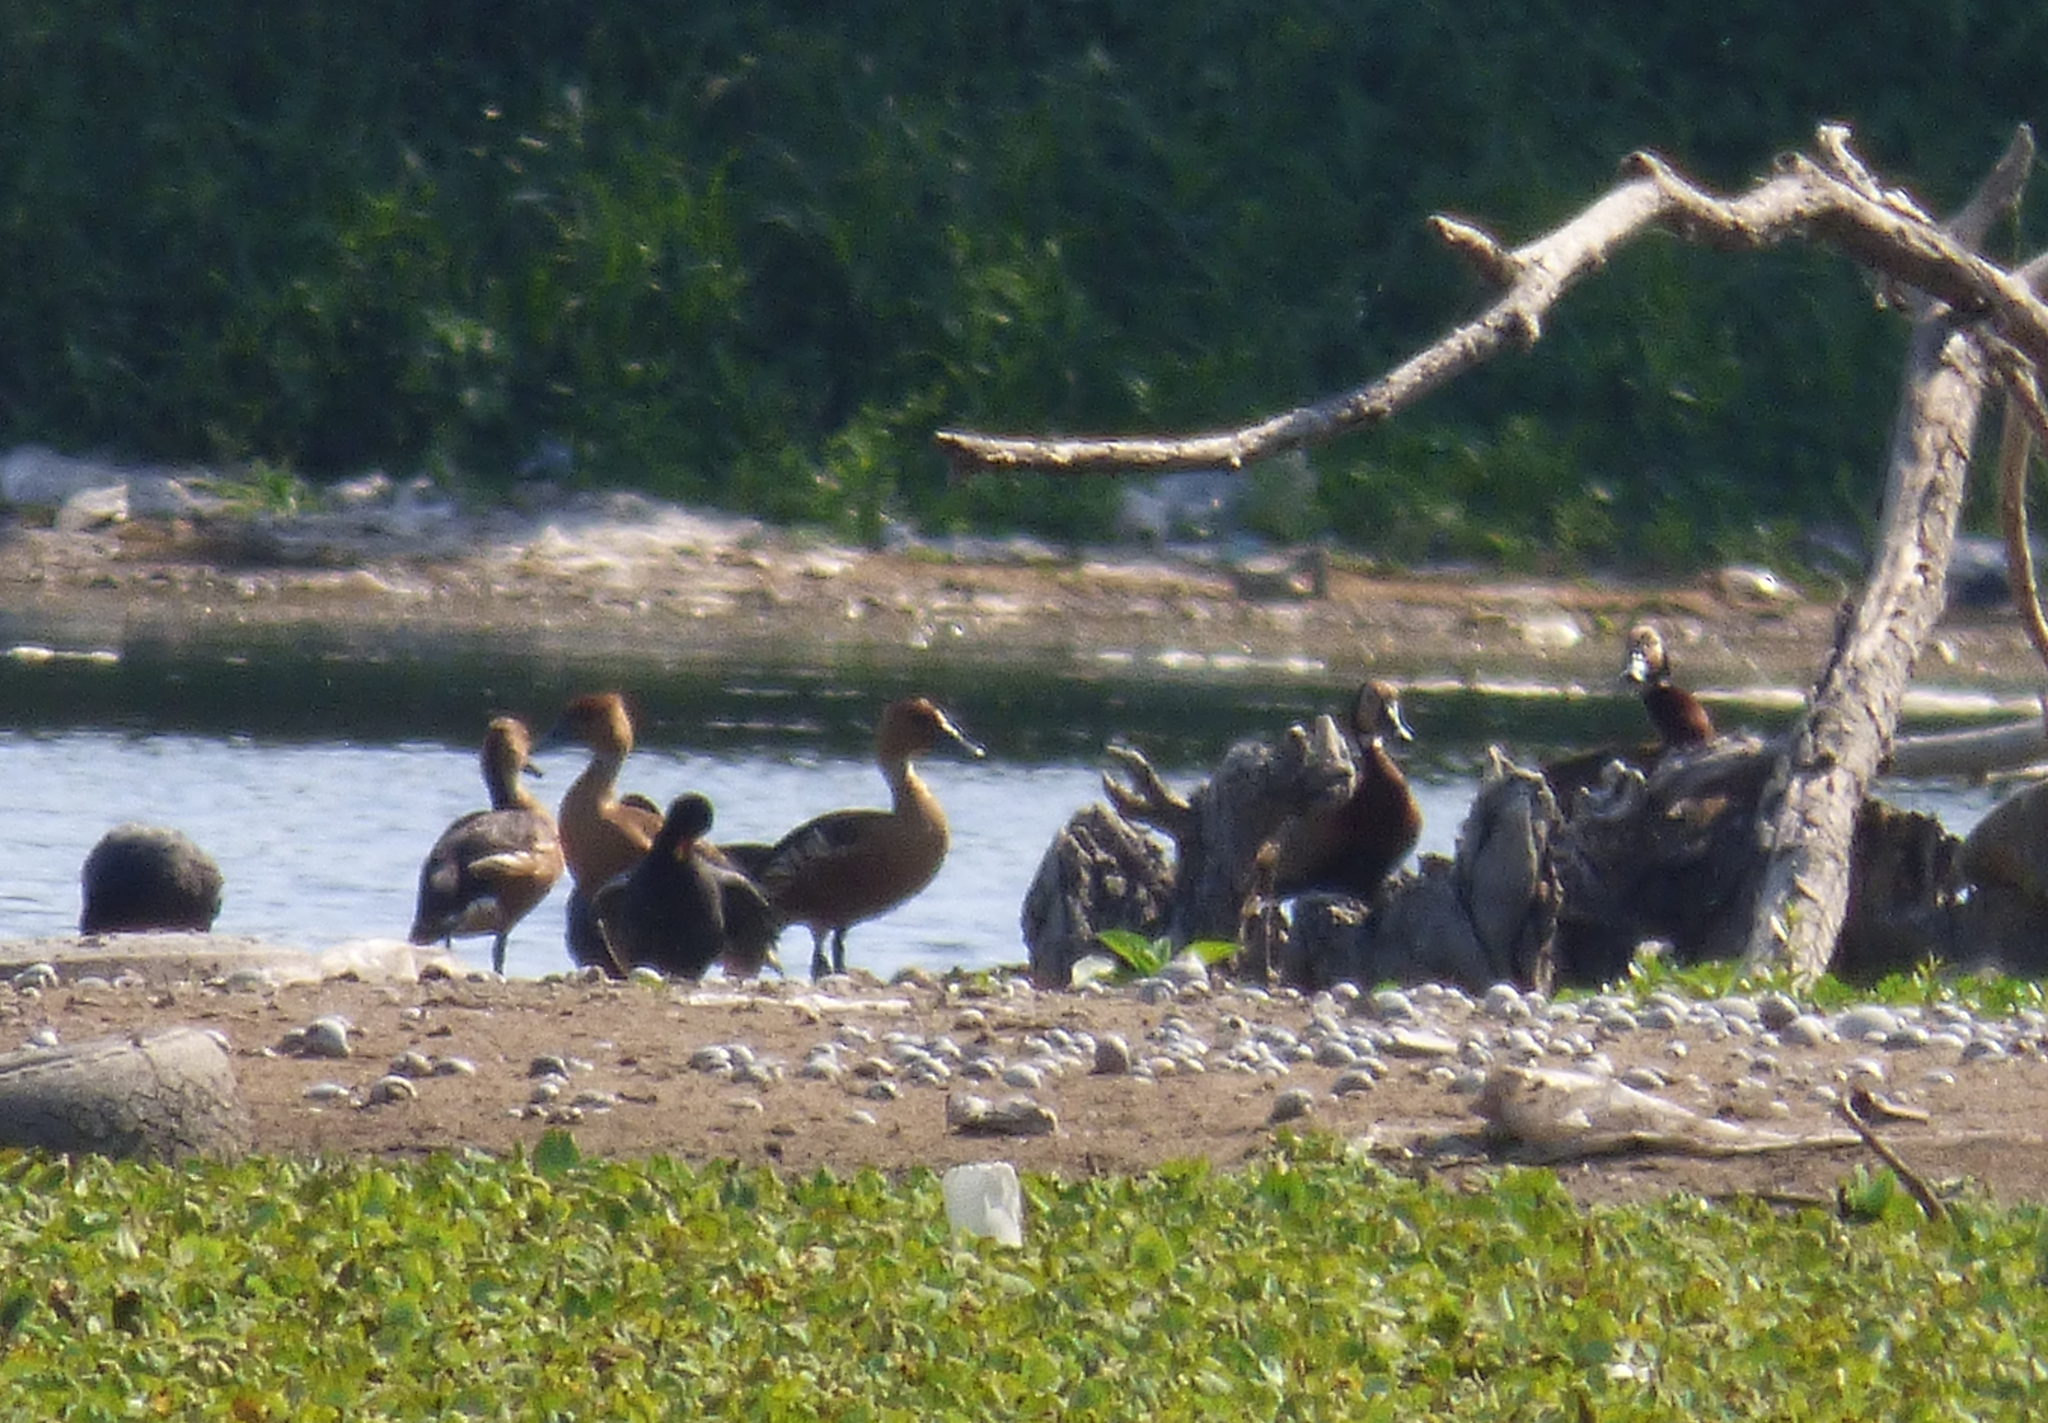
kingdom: Animalia
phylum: Chordata
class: Aves
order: Anseriformes
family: Anatidae
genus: Dendrocygna
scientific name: Dendrocygna viduata
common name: White-faced whistling duck
